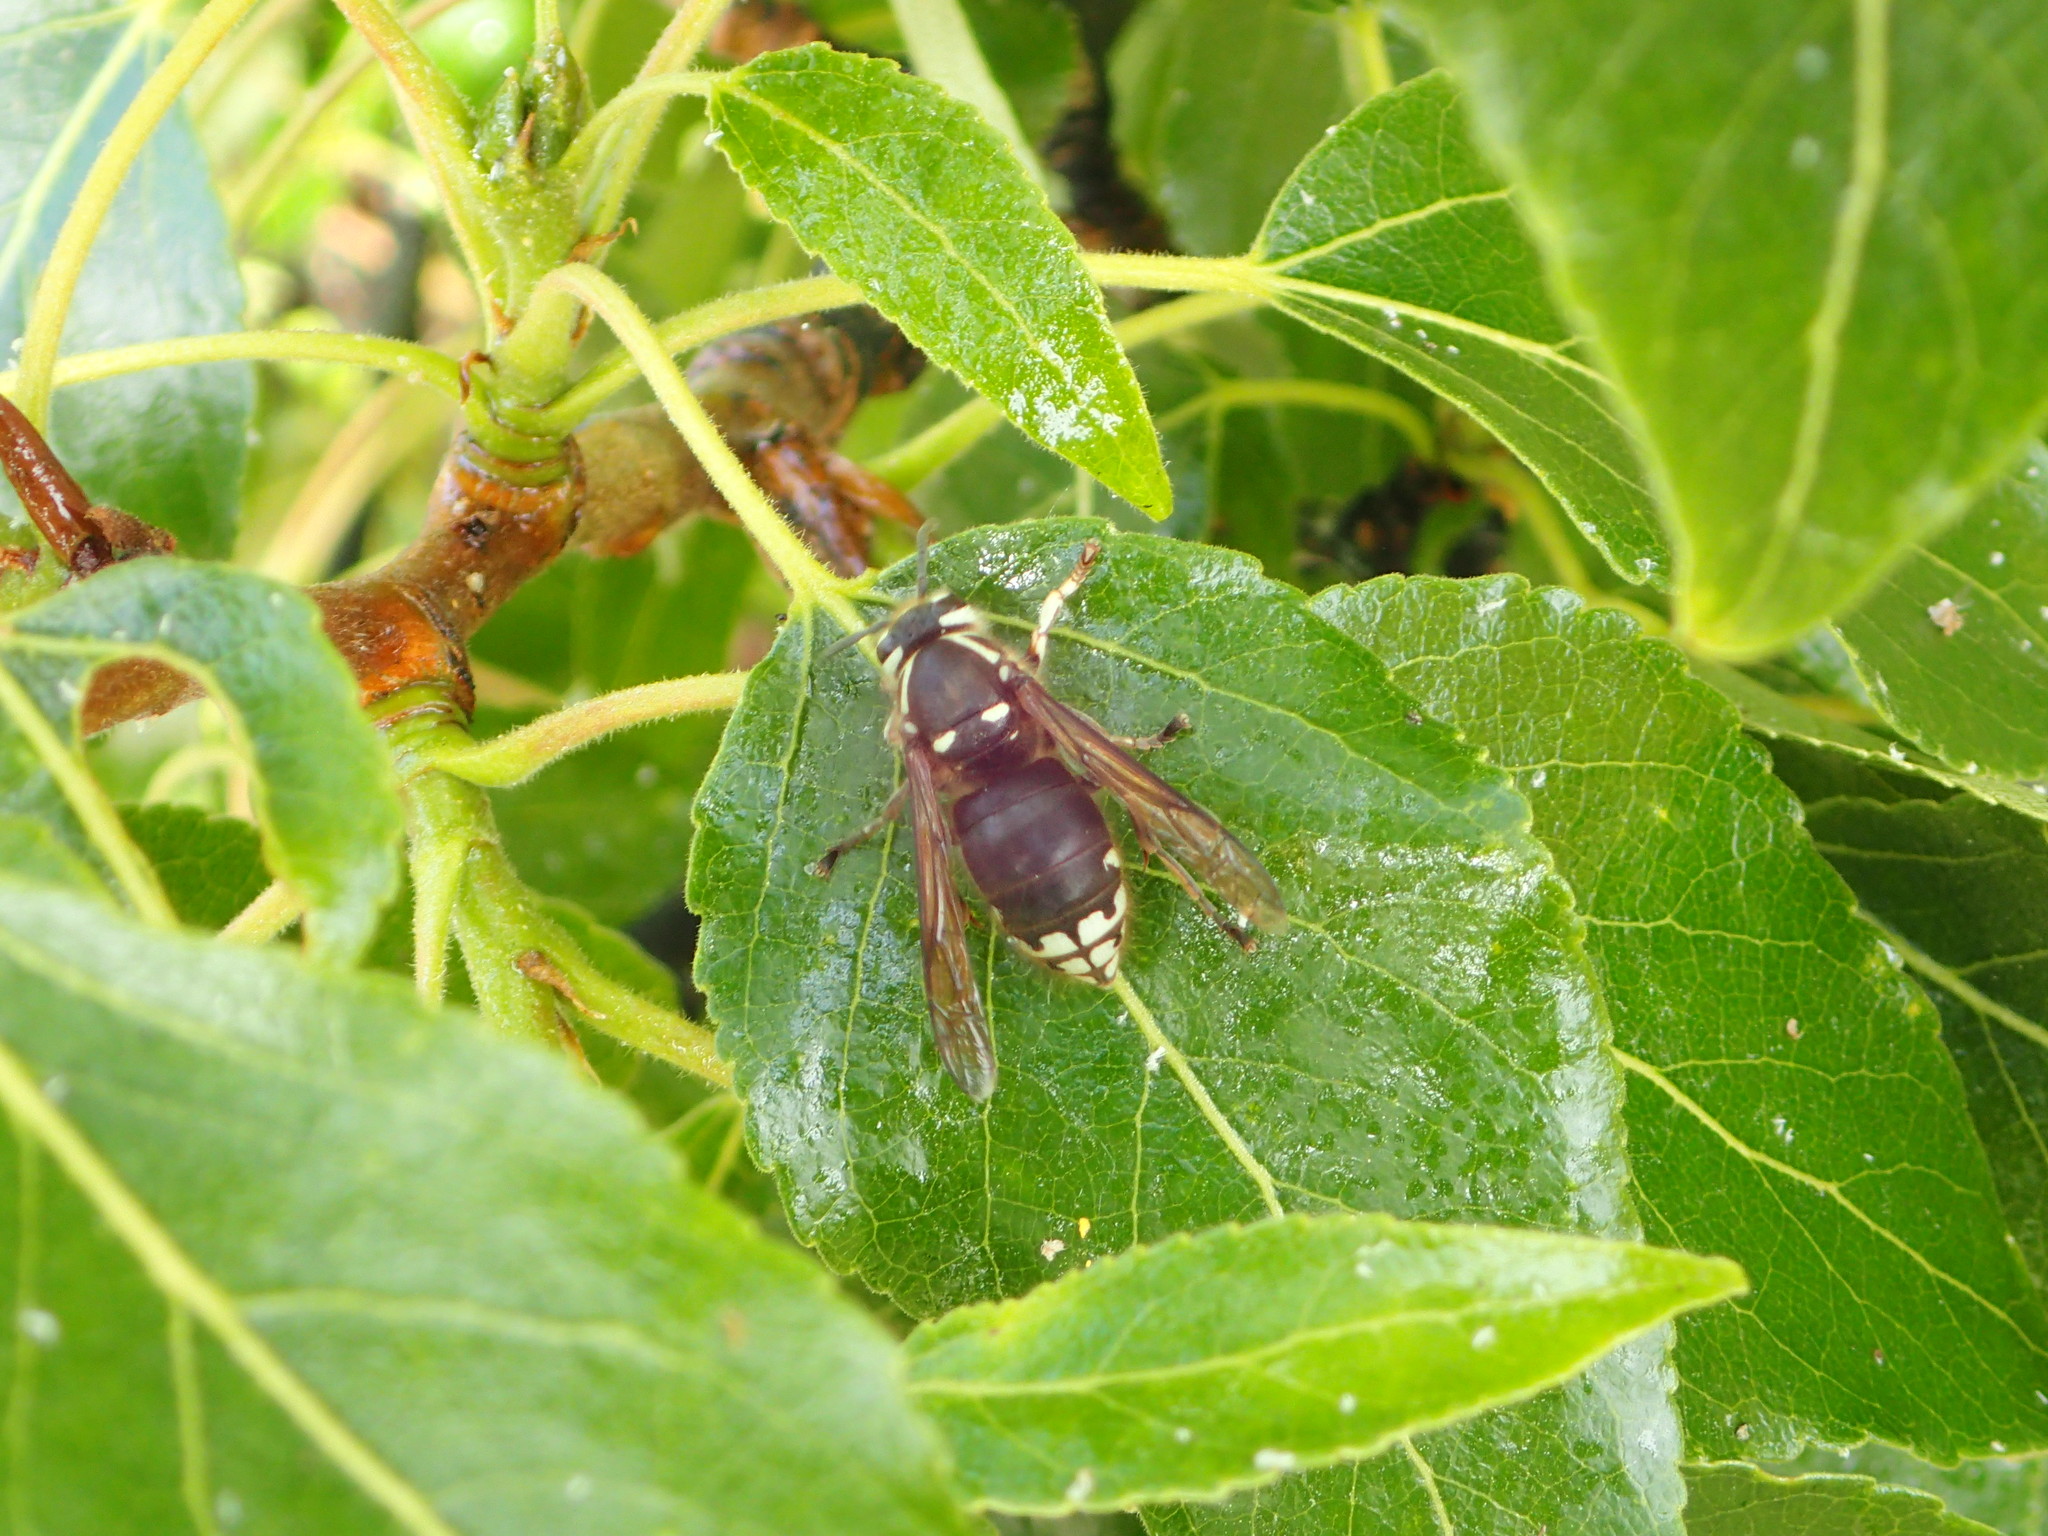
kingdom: Animalia
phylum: Arthropoda
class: Insecta
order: Hymenoptera
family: Vespidae
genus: Dolichovespula
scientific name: Dolichovespula maculata
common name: Bald-faced hornet
